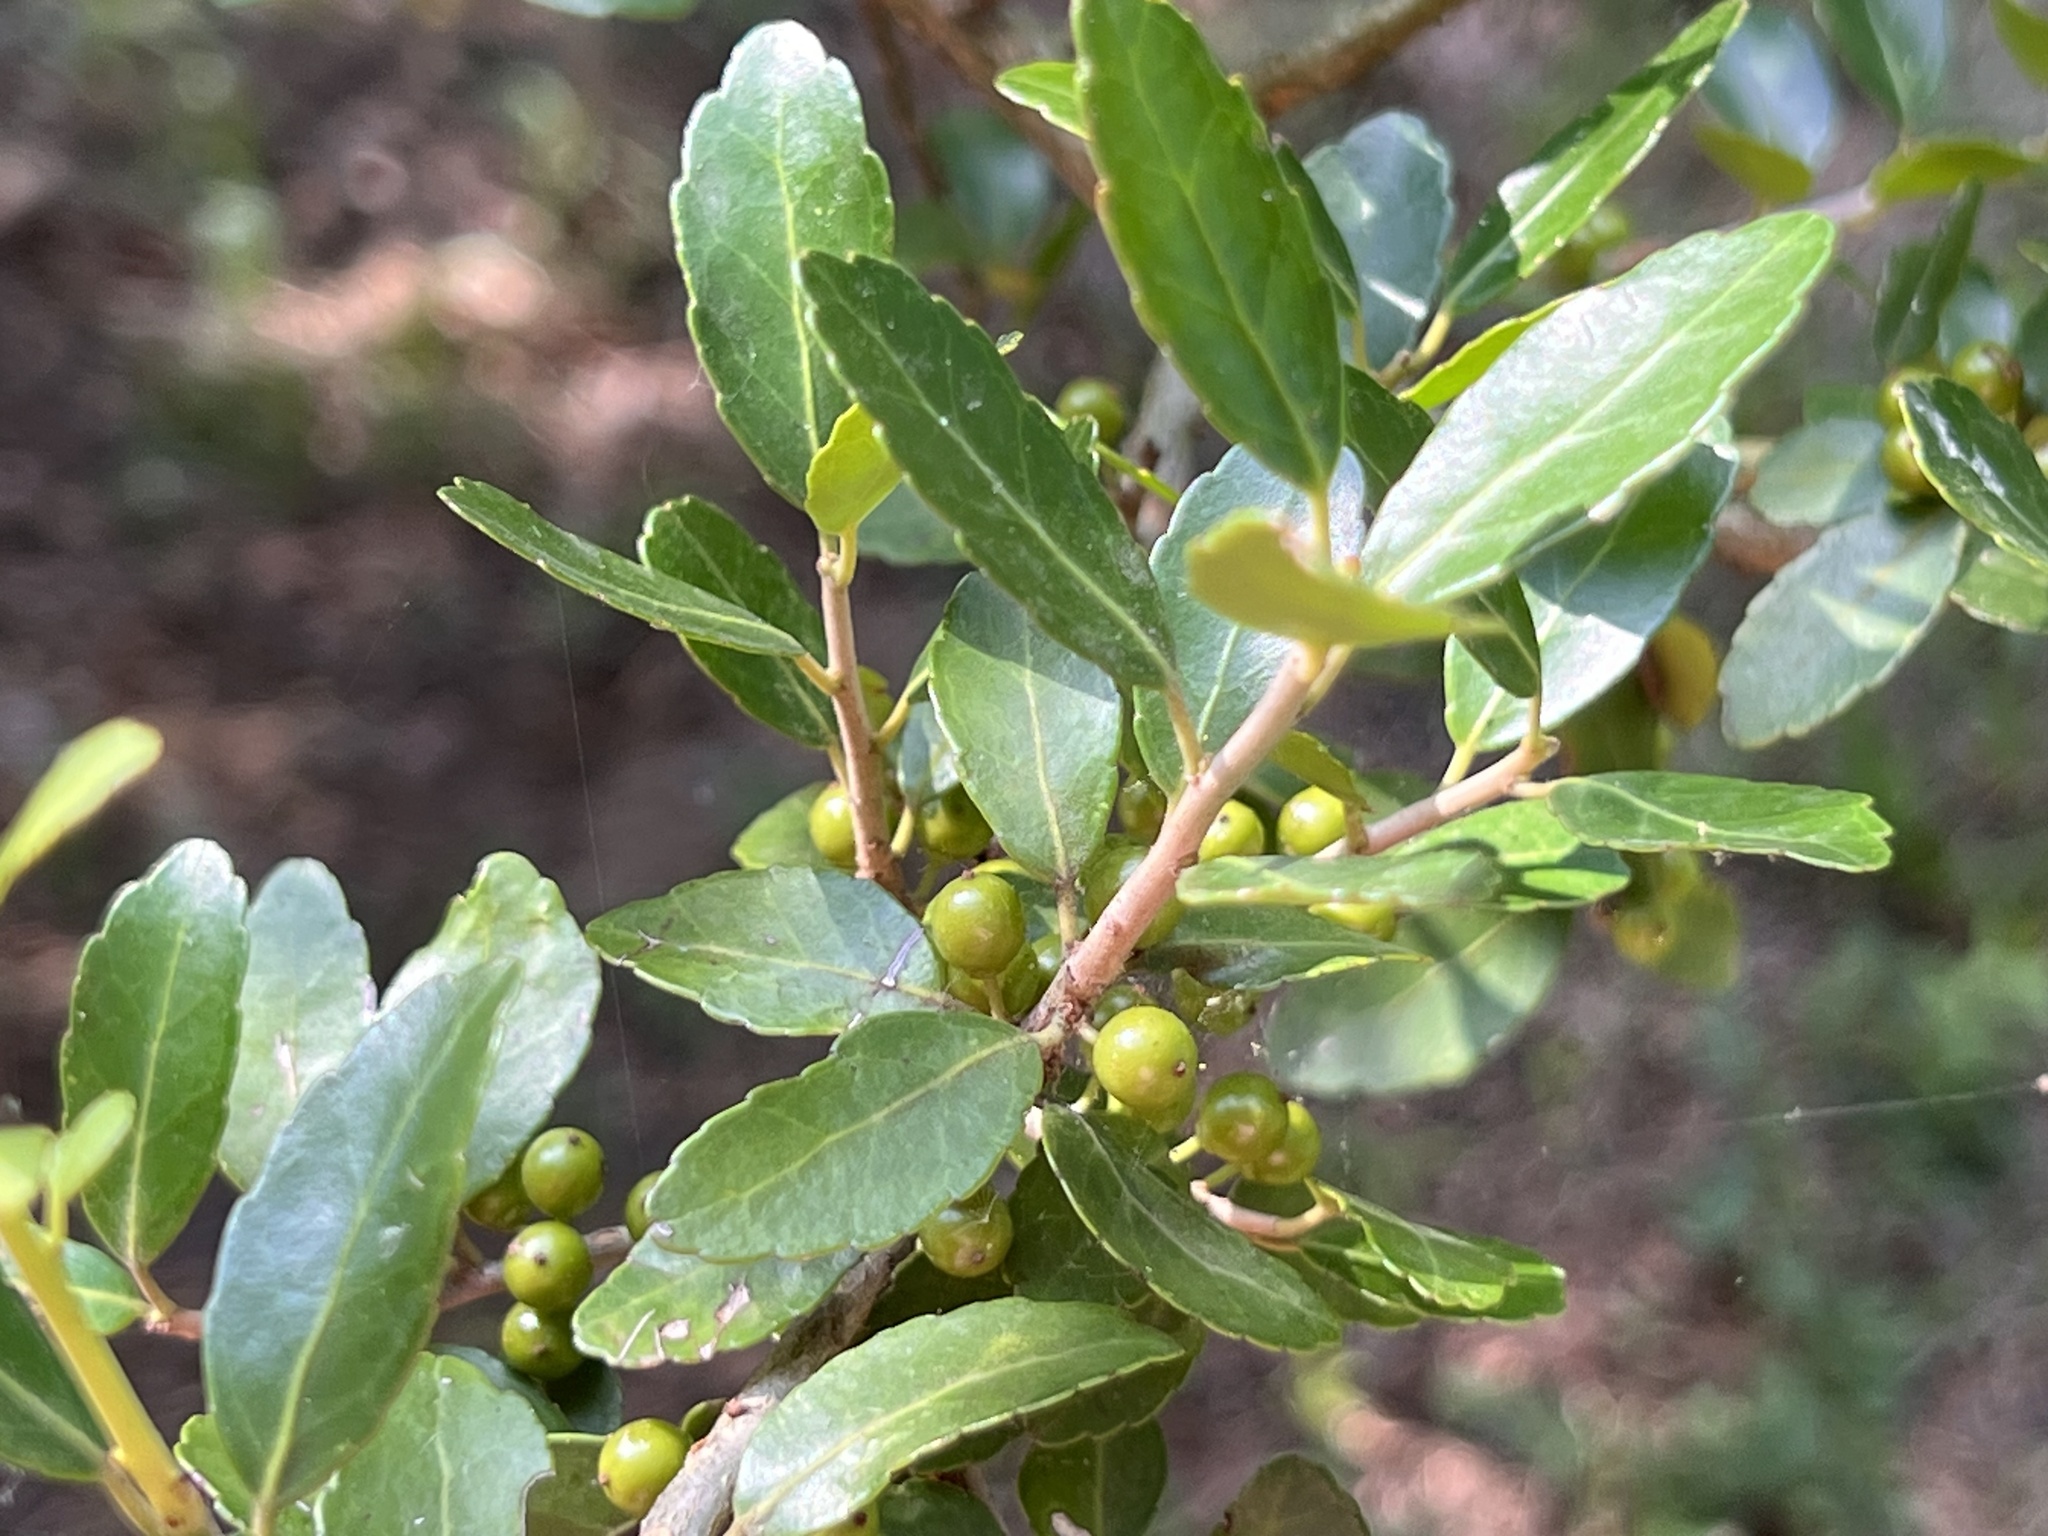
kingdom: Plantae
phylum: Tracheophyta
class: Magnoliopsida
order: Aquifoliales
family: Aquifoliaceae
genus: Ilex
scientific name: Ilex vomitoria
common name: Yaupon holly
